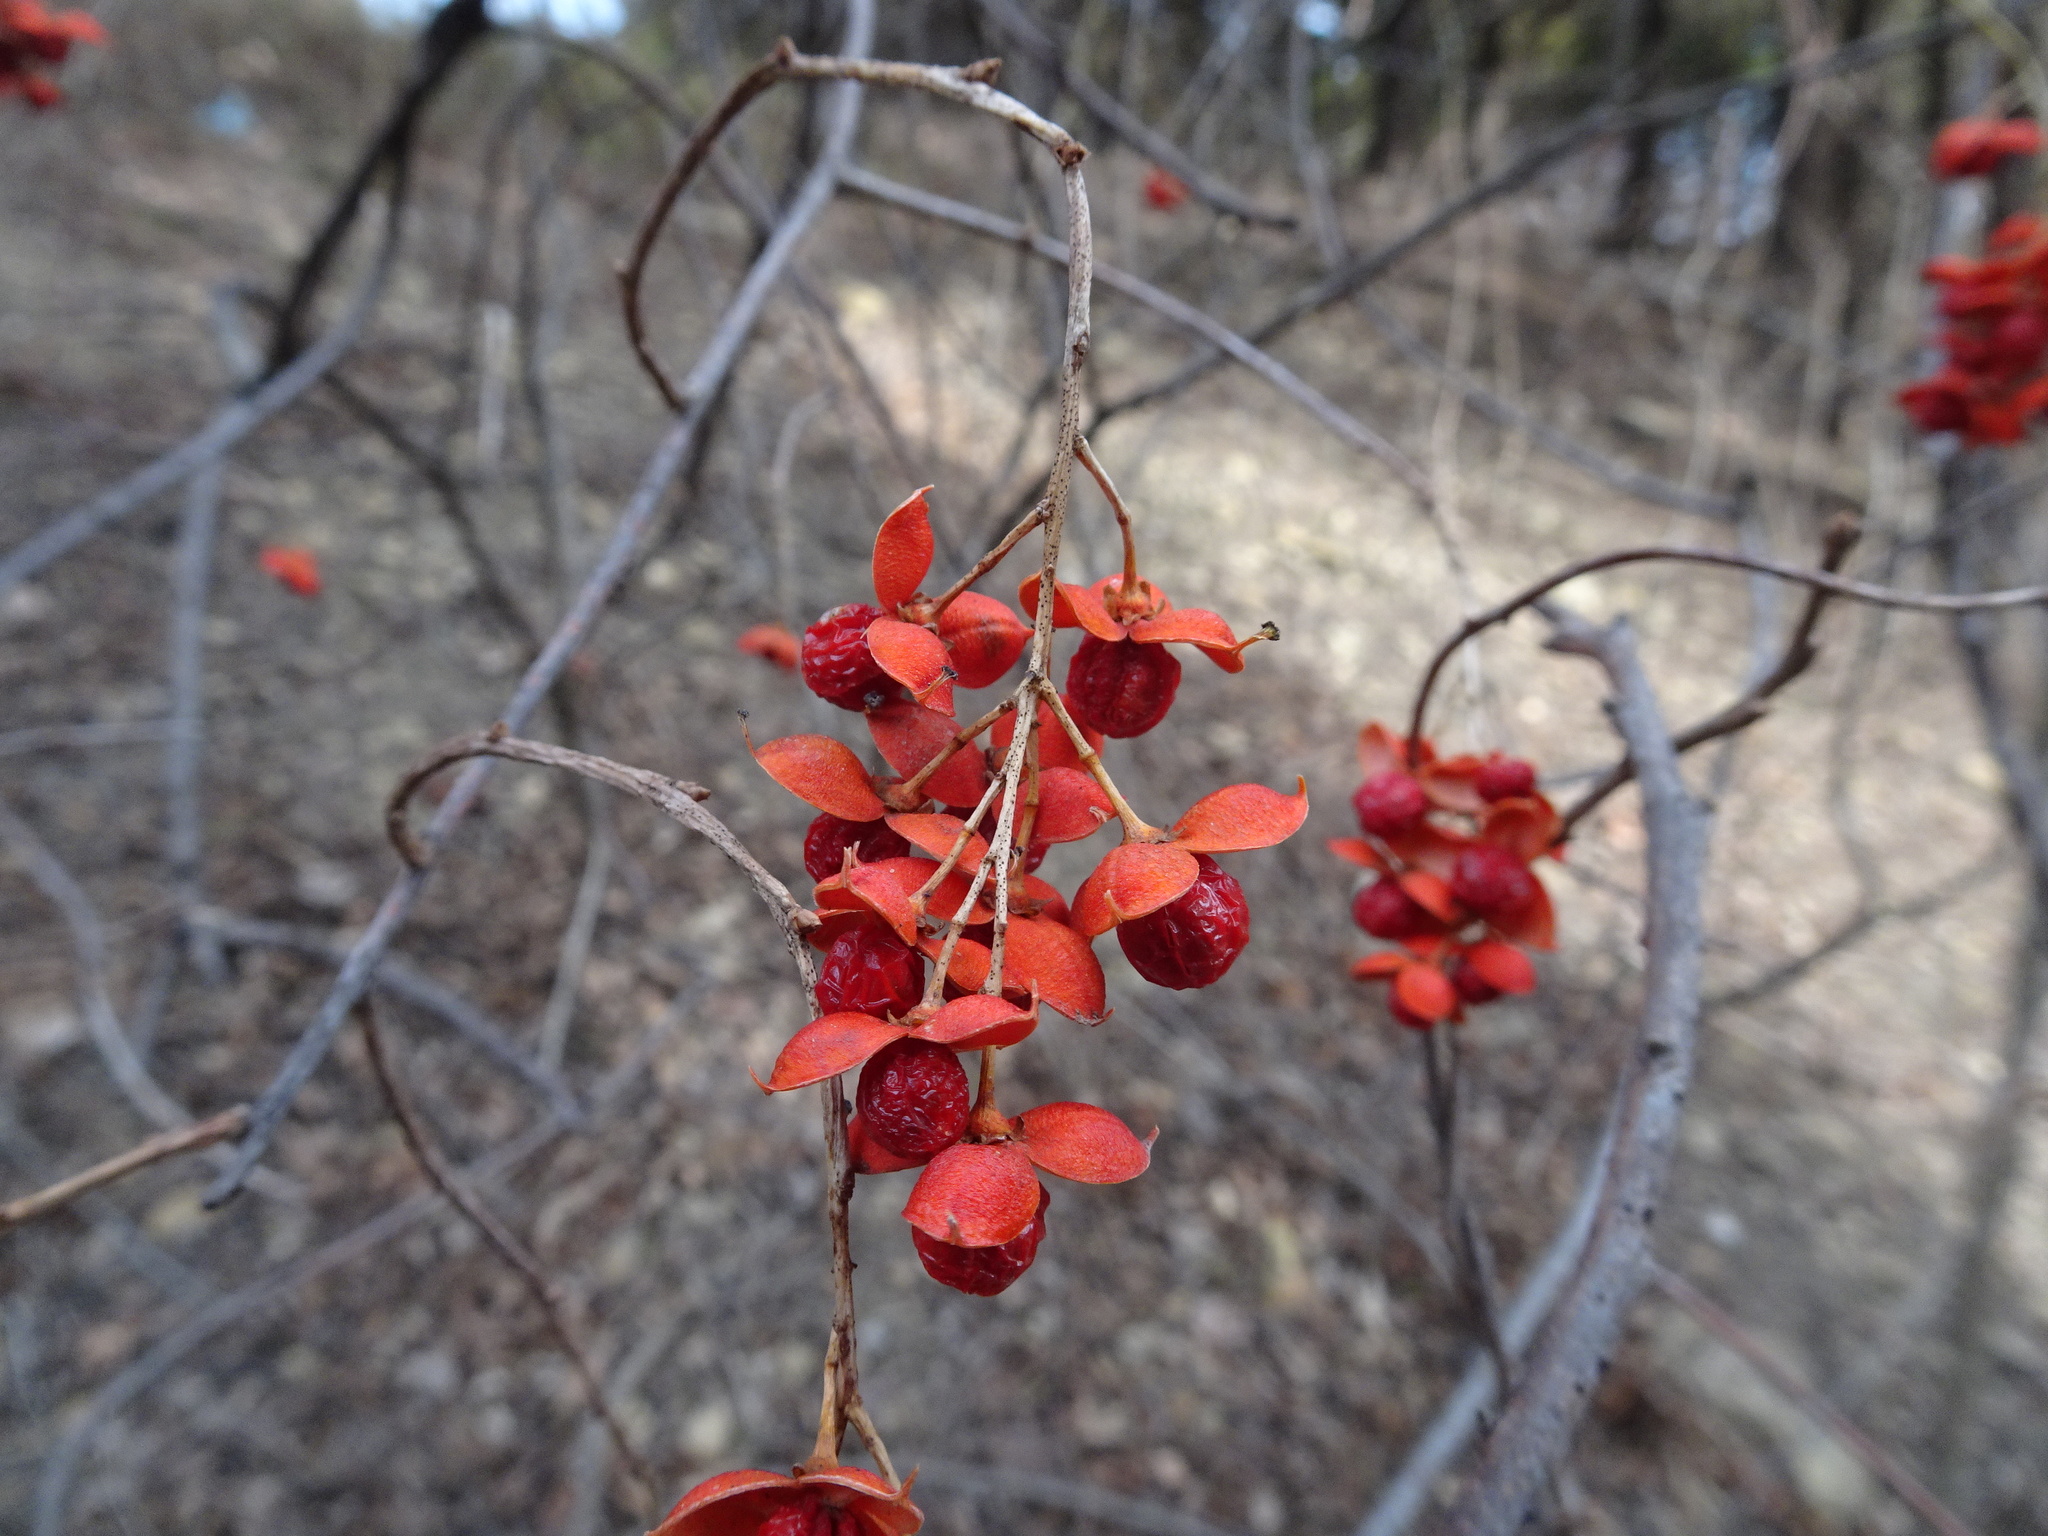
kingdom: Plantae
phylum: Tracheophyta
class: Magnoliopsida
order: Celastrales
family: Celastraceae
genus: Celastrus
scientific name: Celastrus scandens
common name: American bittersweet
